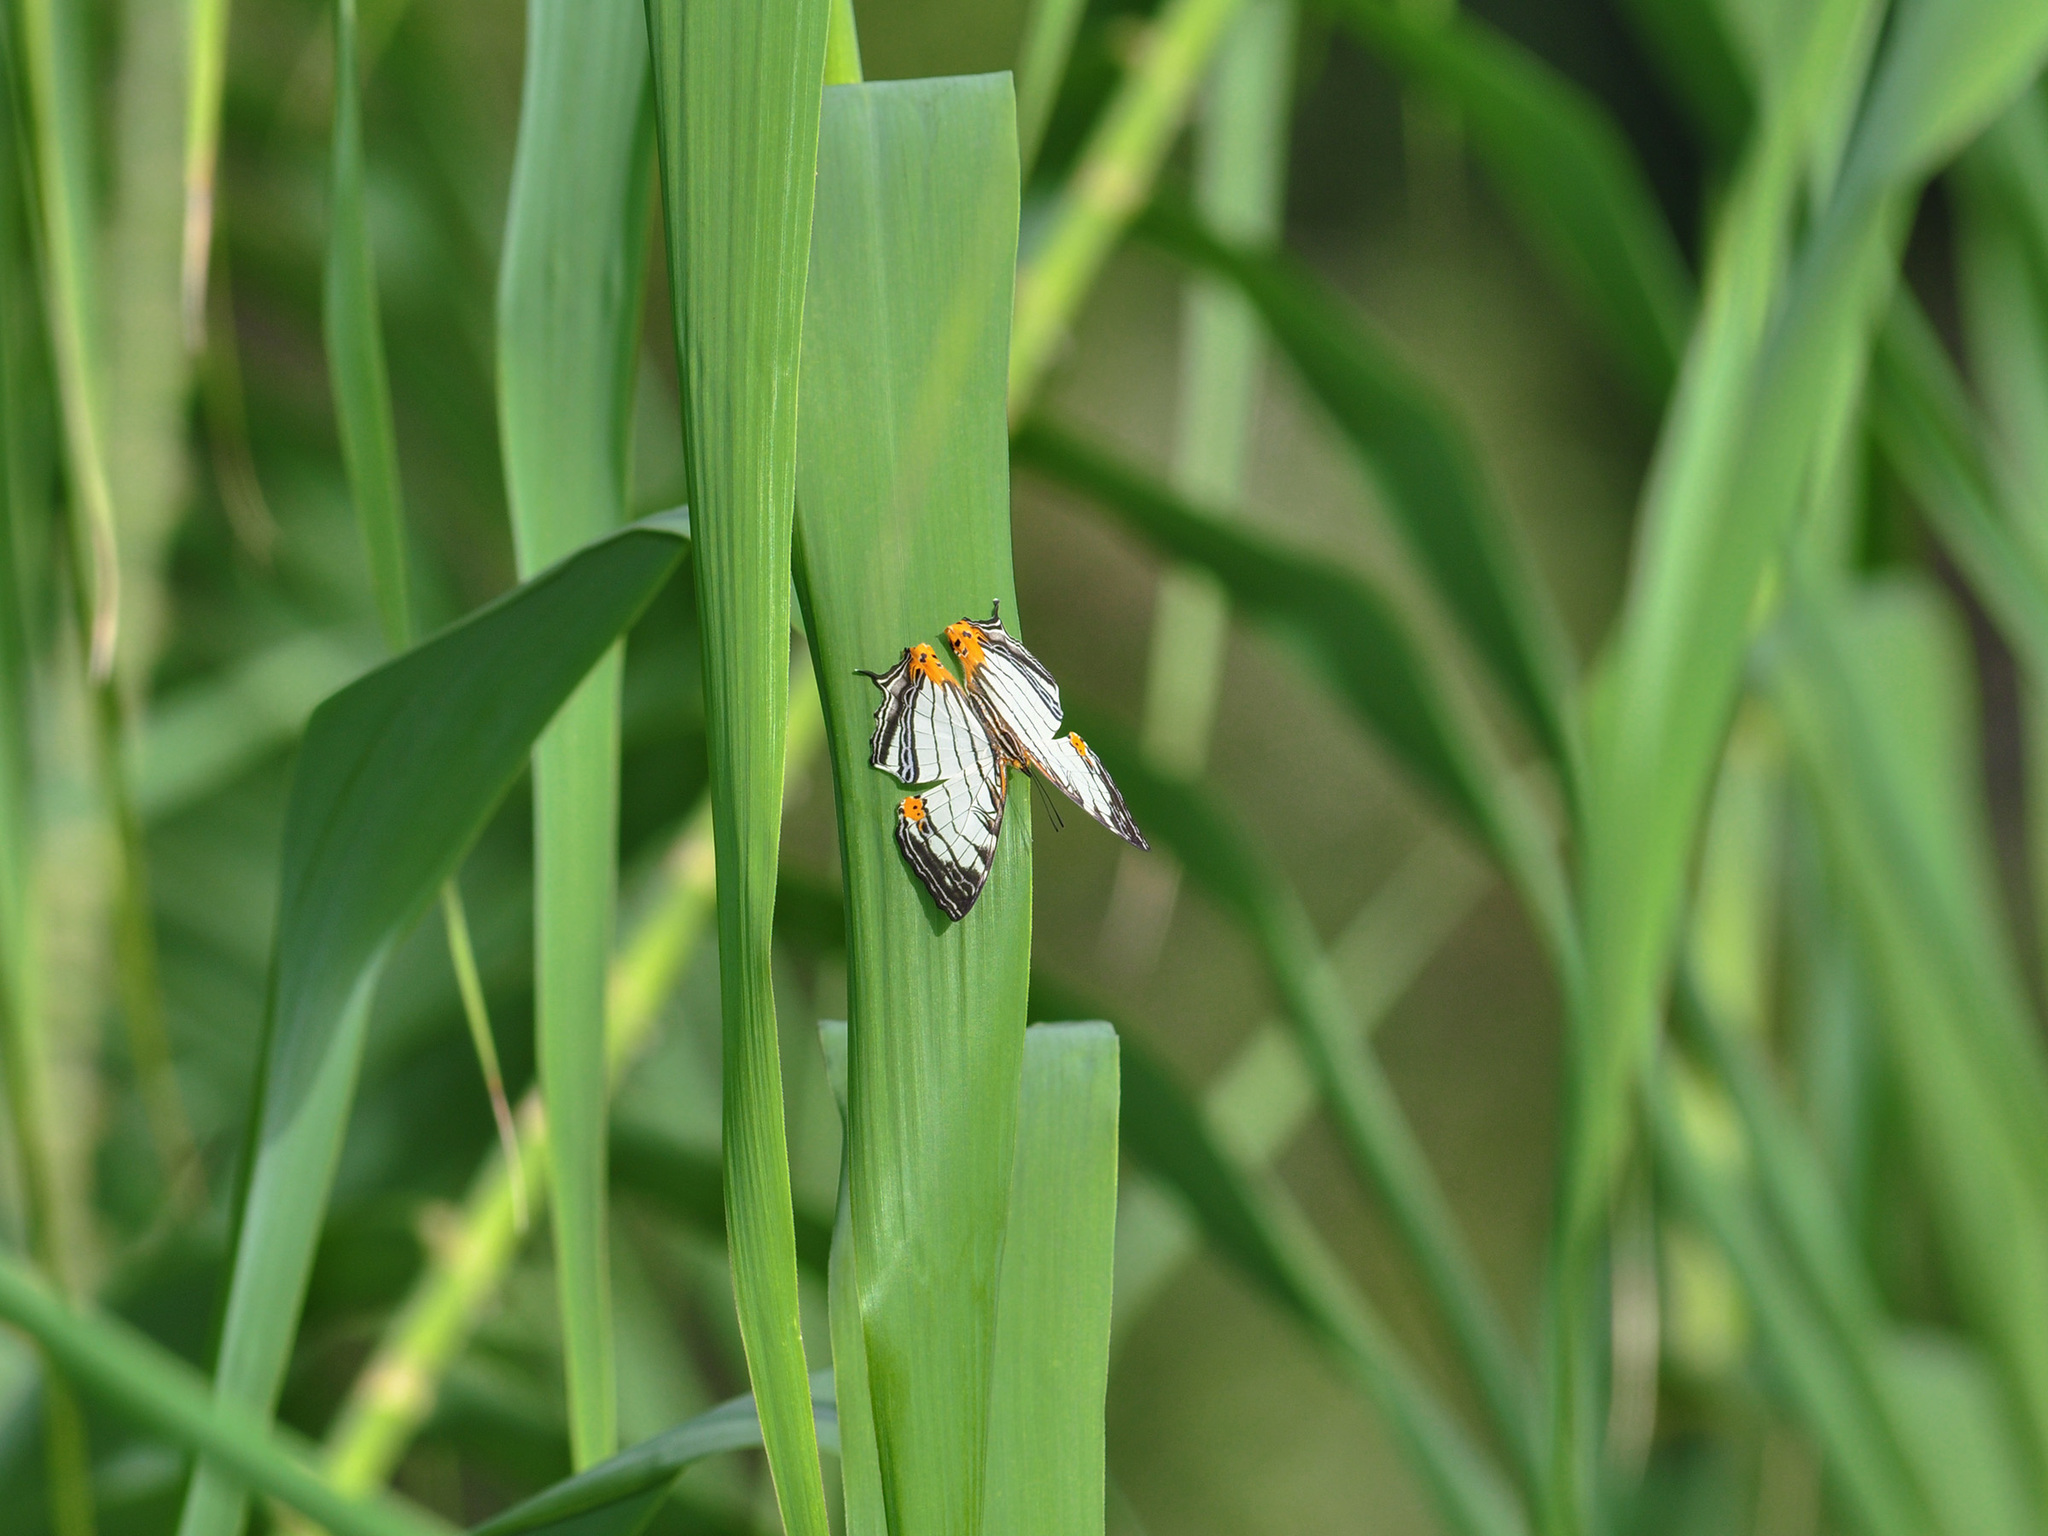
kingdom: Animalia
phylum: Arthropoda
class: Insecta
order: Lepidoptera
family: Nymphalidae
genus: Cyrestis
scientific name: Cyrestis maenalis
